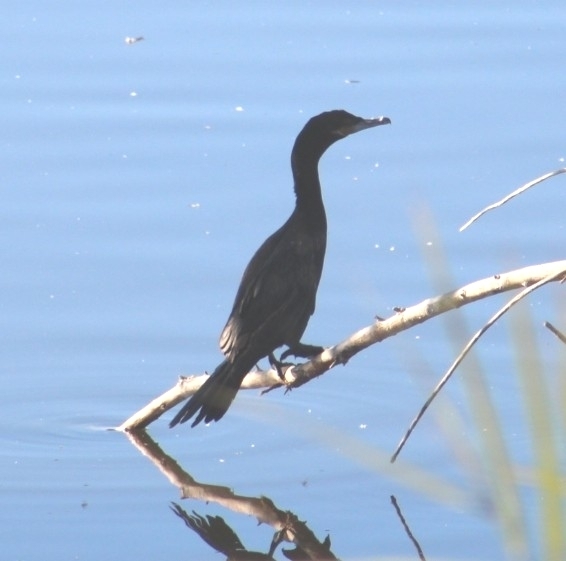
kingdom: Animalia
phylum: Chordata
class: Aves
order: Suliformes
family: Phalacrocoracidae
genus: Phalacrocorax
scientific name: Phalacrocorax brasilianus
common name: Neotropic cormorant
